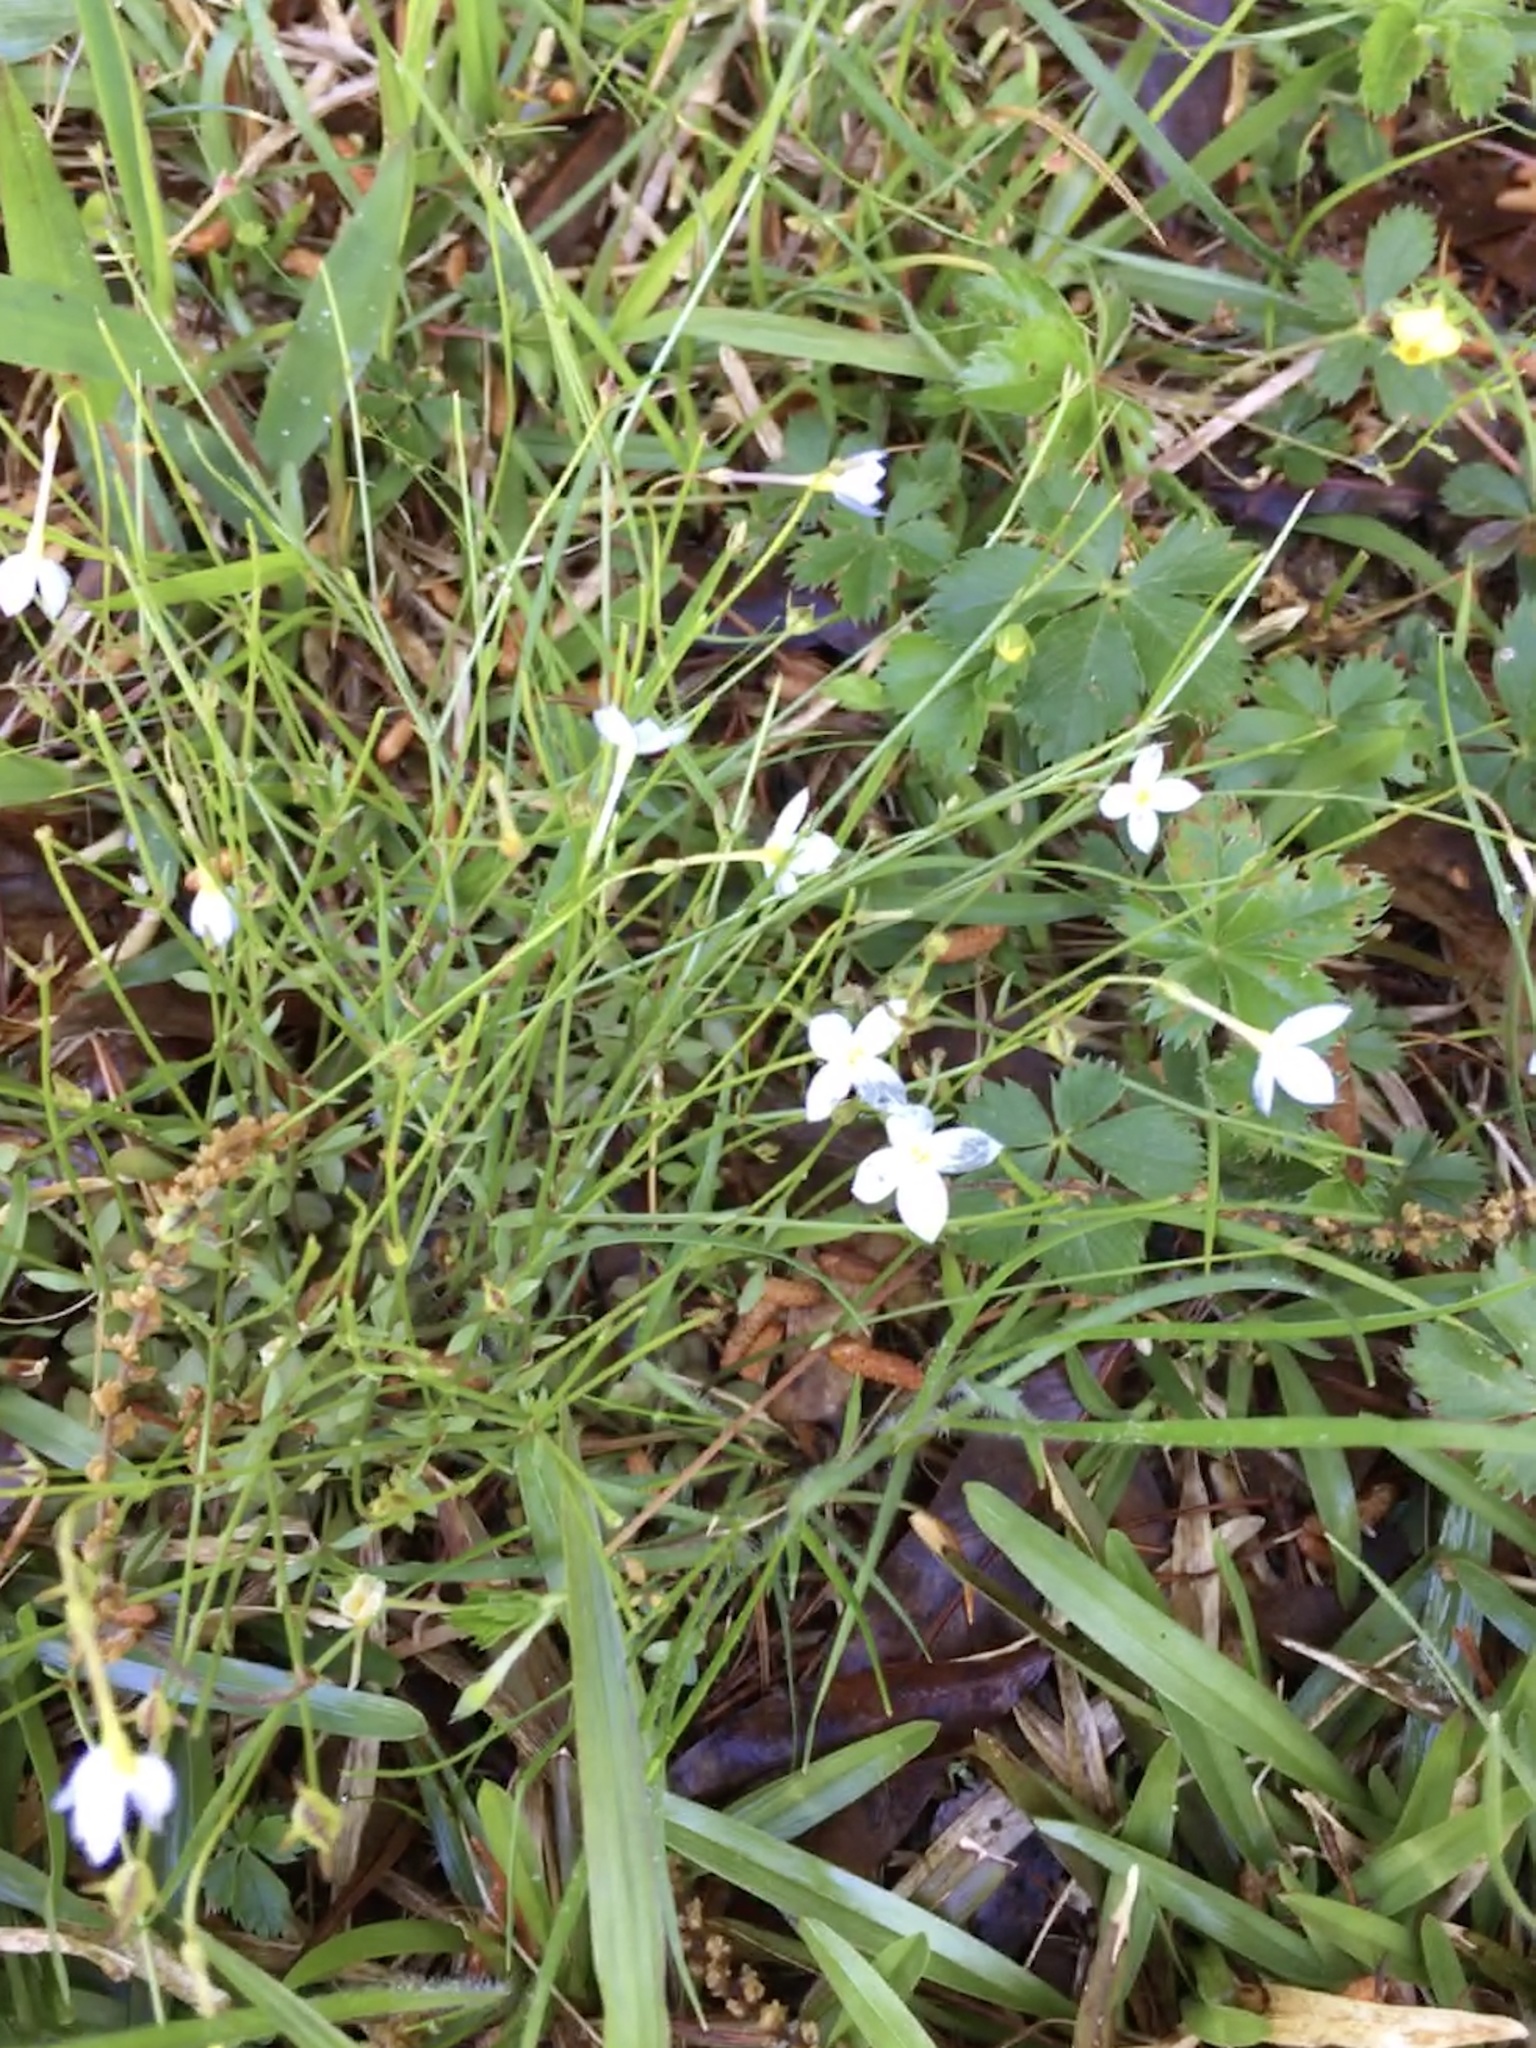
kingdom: Plantae
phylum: Tracheophyta
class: Magnoliopsida
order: Gentianales
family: Rubiaceae
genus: Houstonia
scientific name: Houstonia caerulea
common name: Bluets
